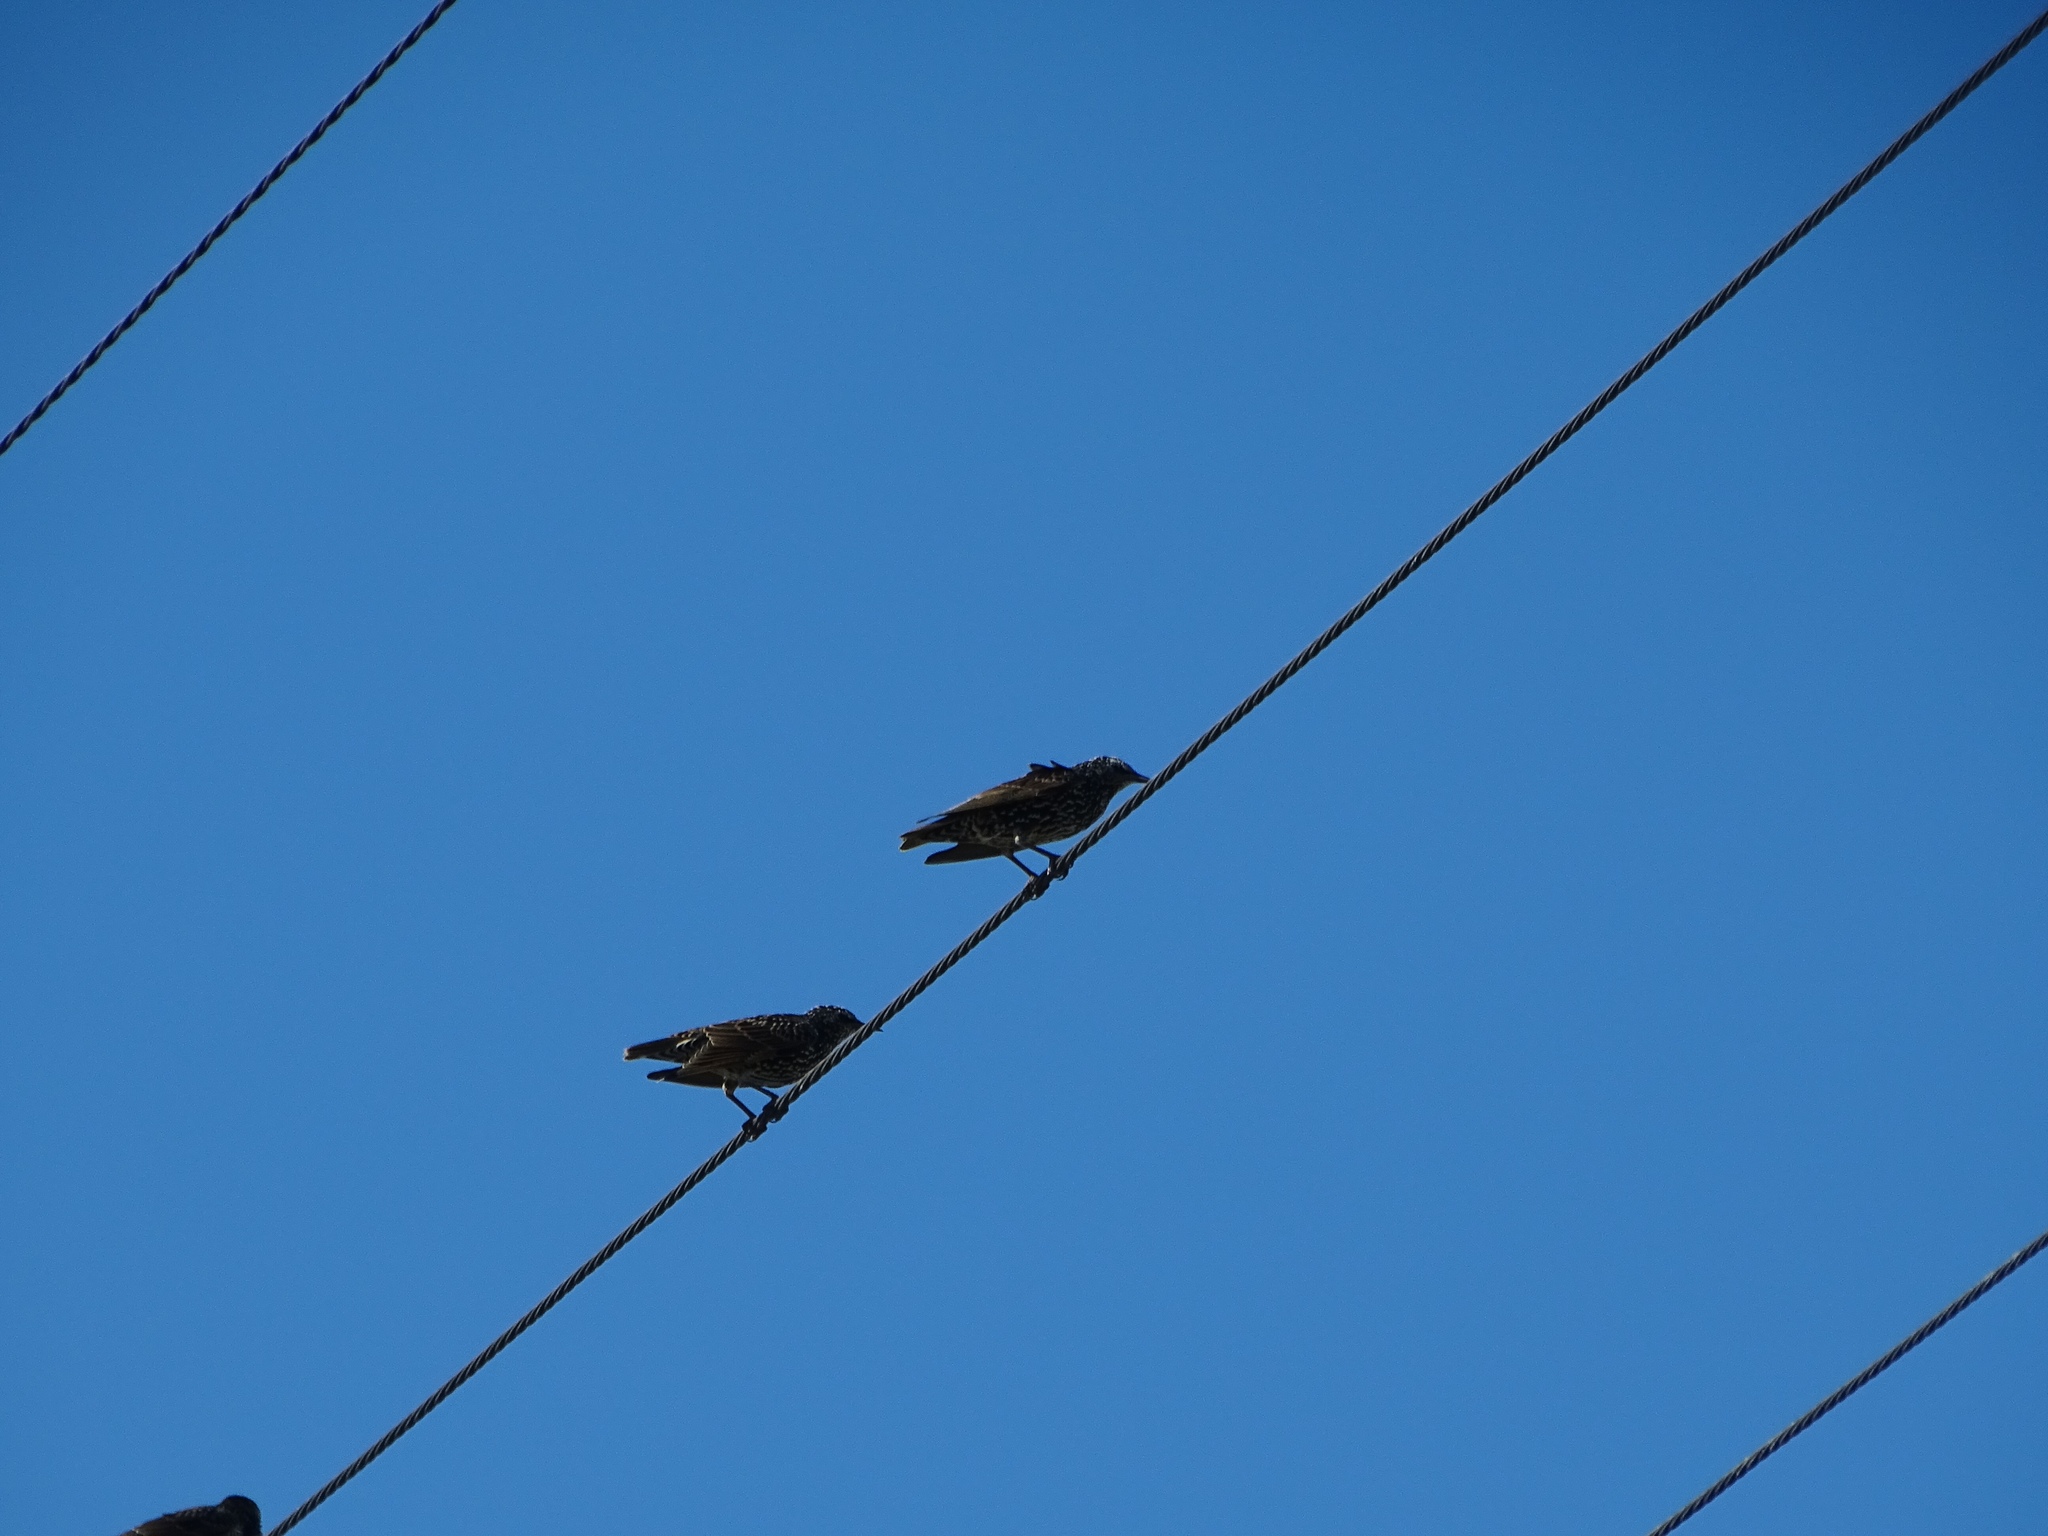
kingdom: Animalia
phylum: Chordata
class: Aves
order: Passeriformes
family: Sturnidae
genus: Sturnus
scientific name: Sturnus vulgaris
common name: Common starling
